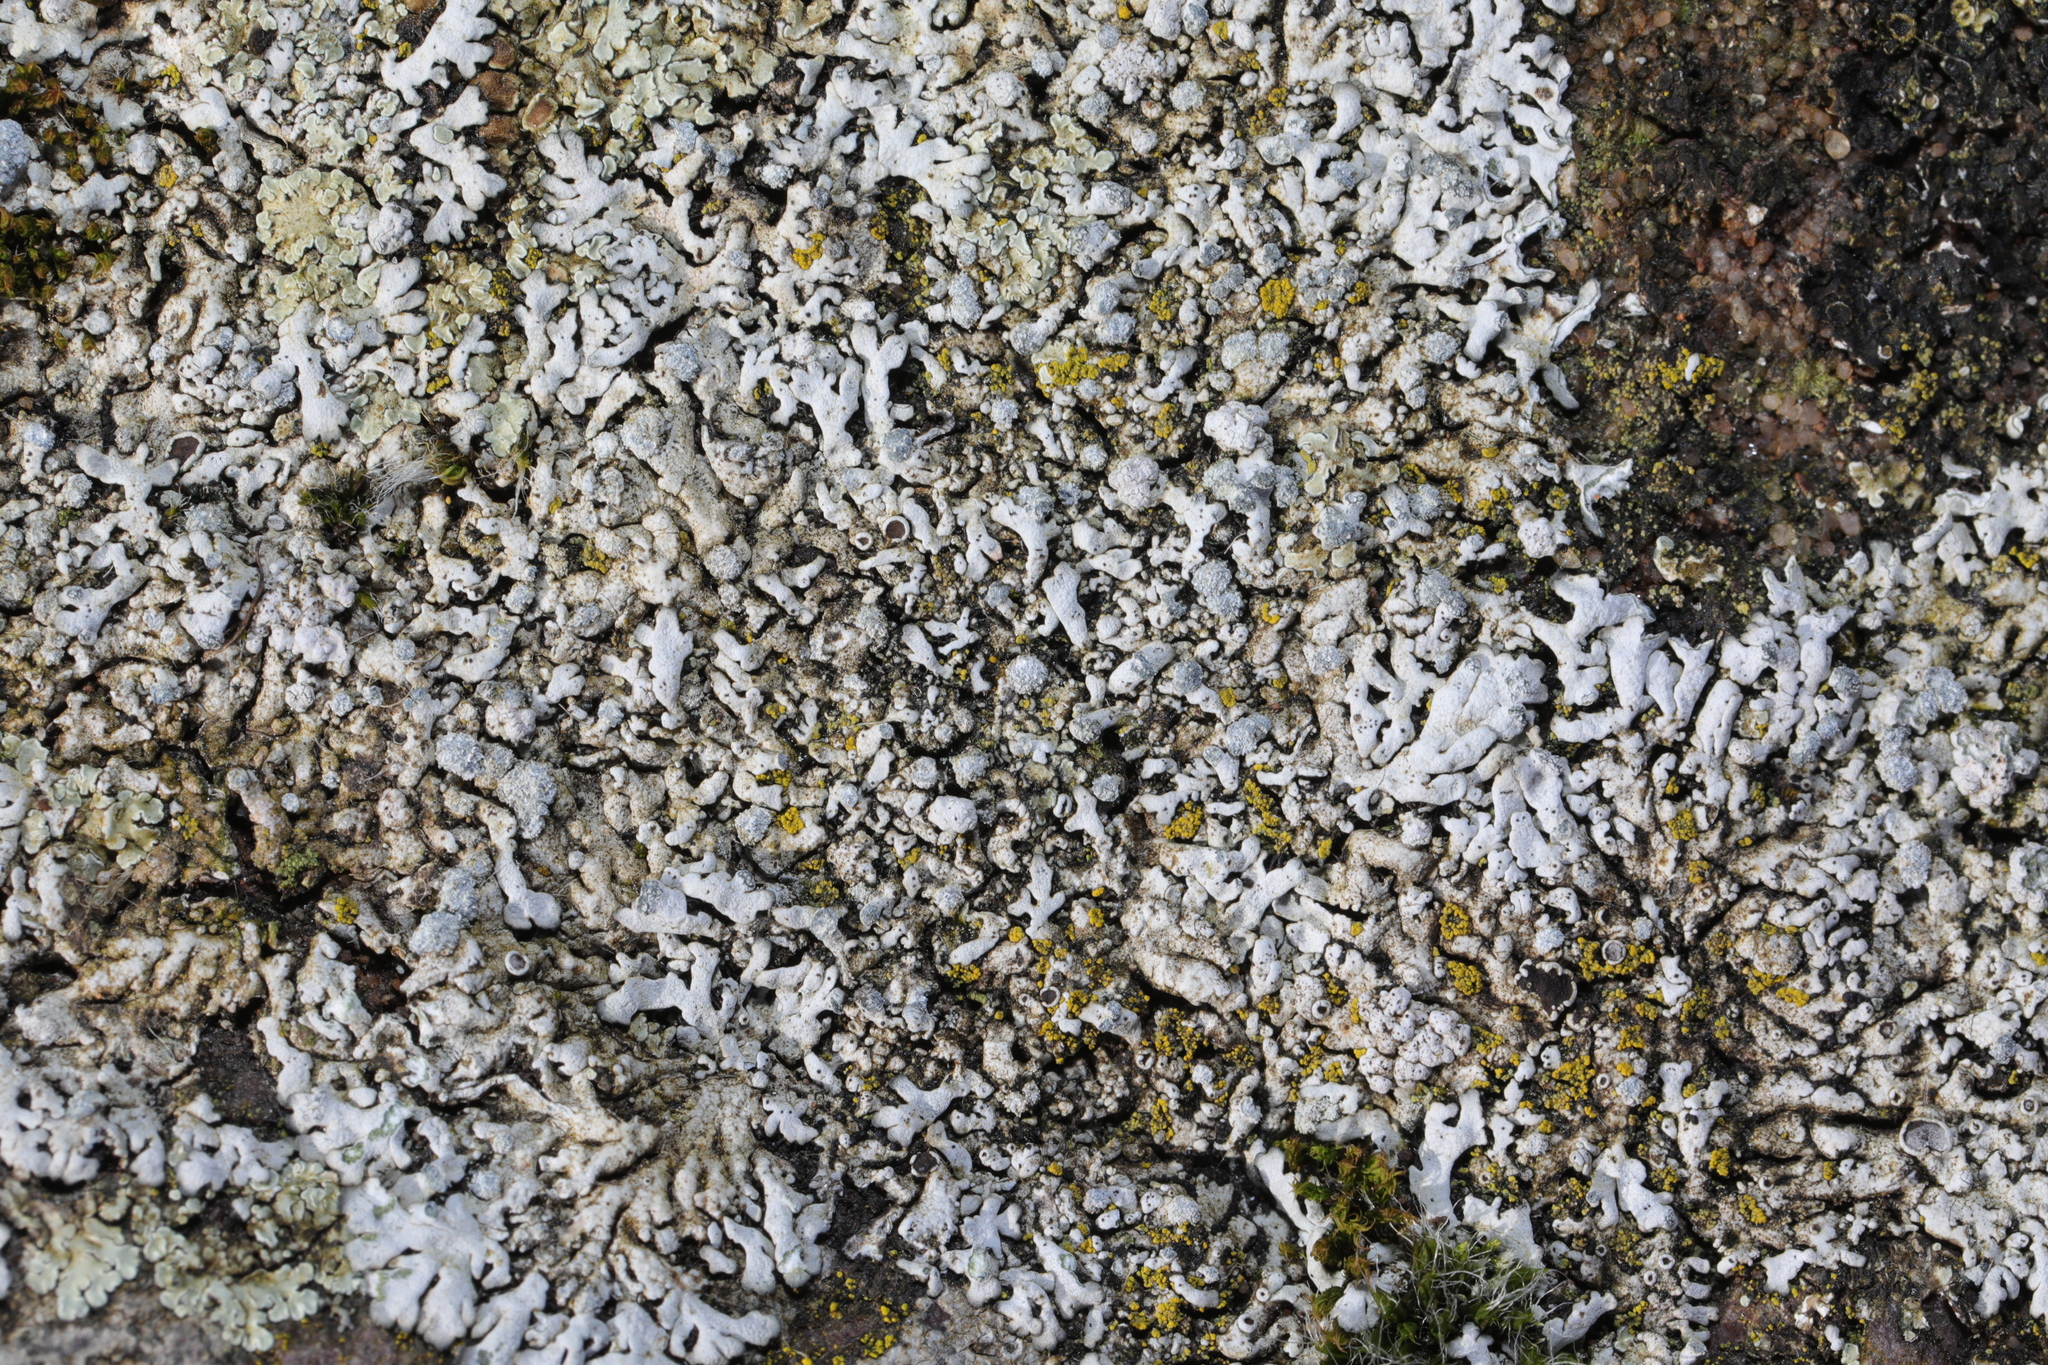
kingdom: Fungi
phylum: Ascomycota
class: Lecanoromycetes
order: Lecanorales
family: Lecanoraceae
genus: Protoparmeliopsis
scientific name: Protoparmeliopsis muralis
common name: Stonewall rim lichen
